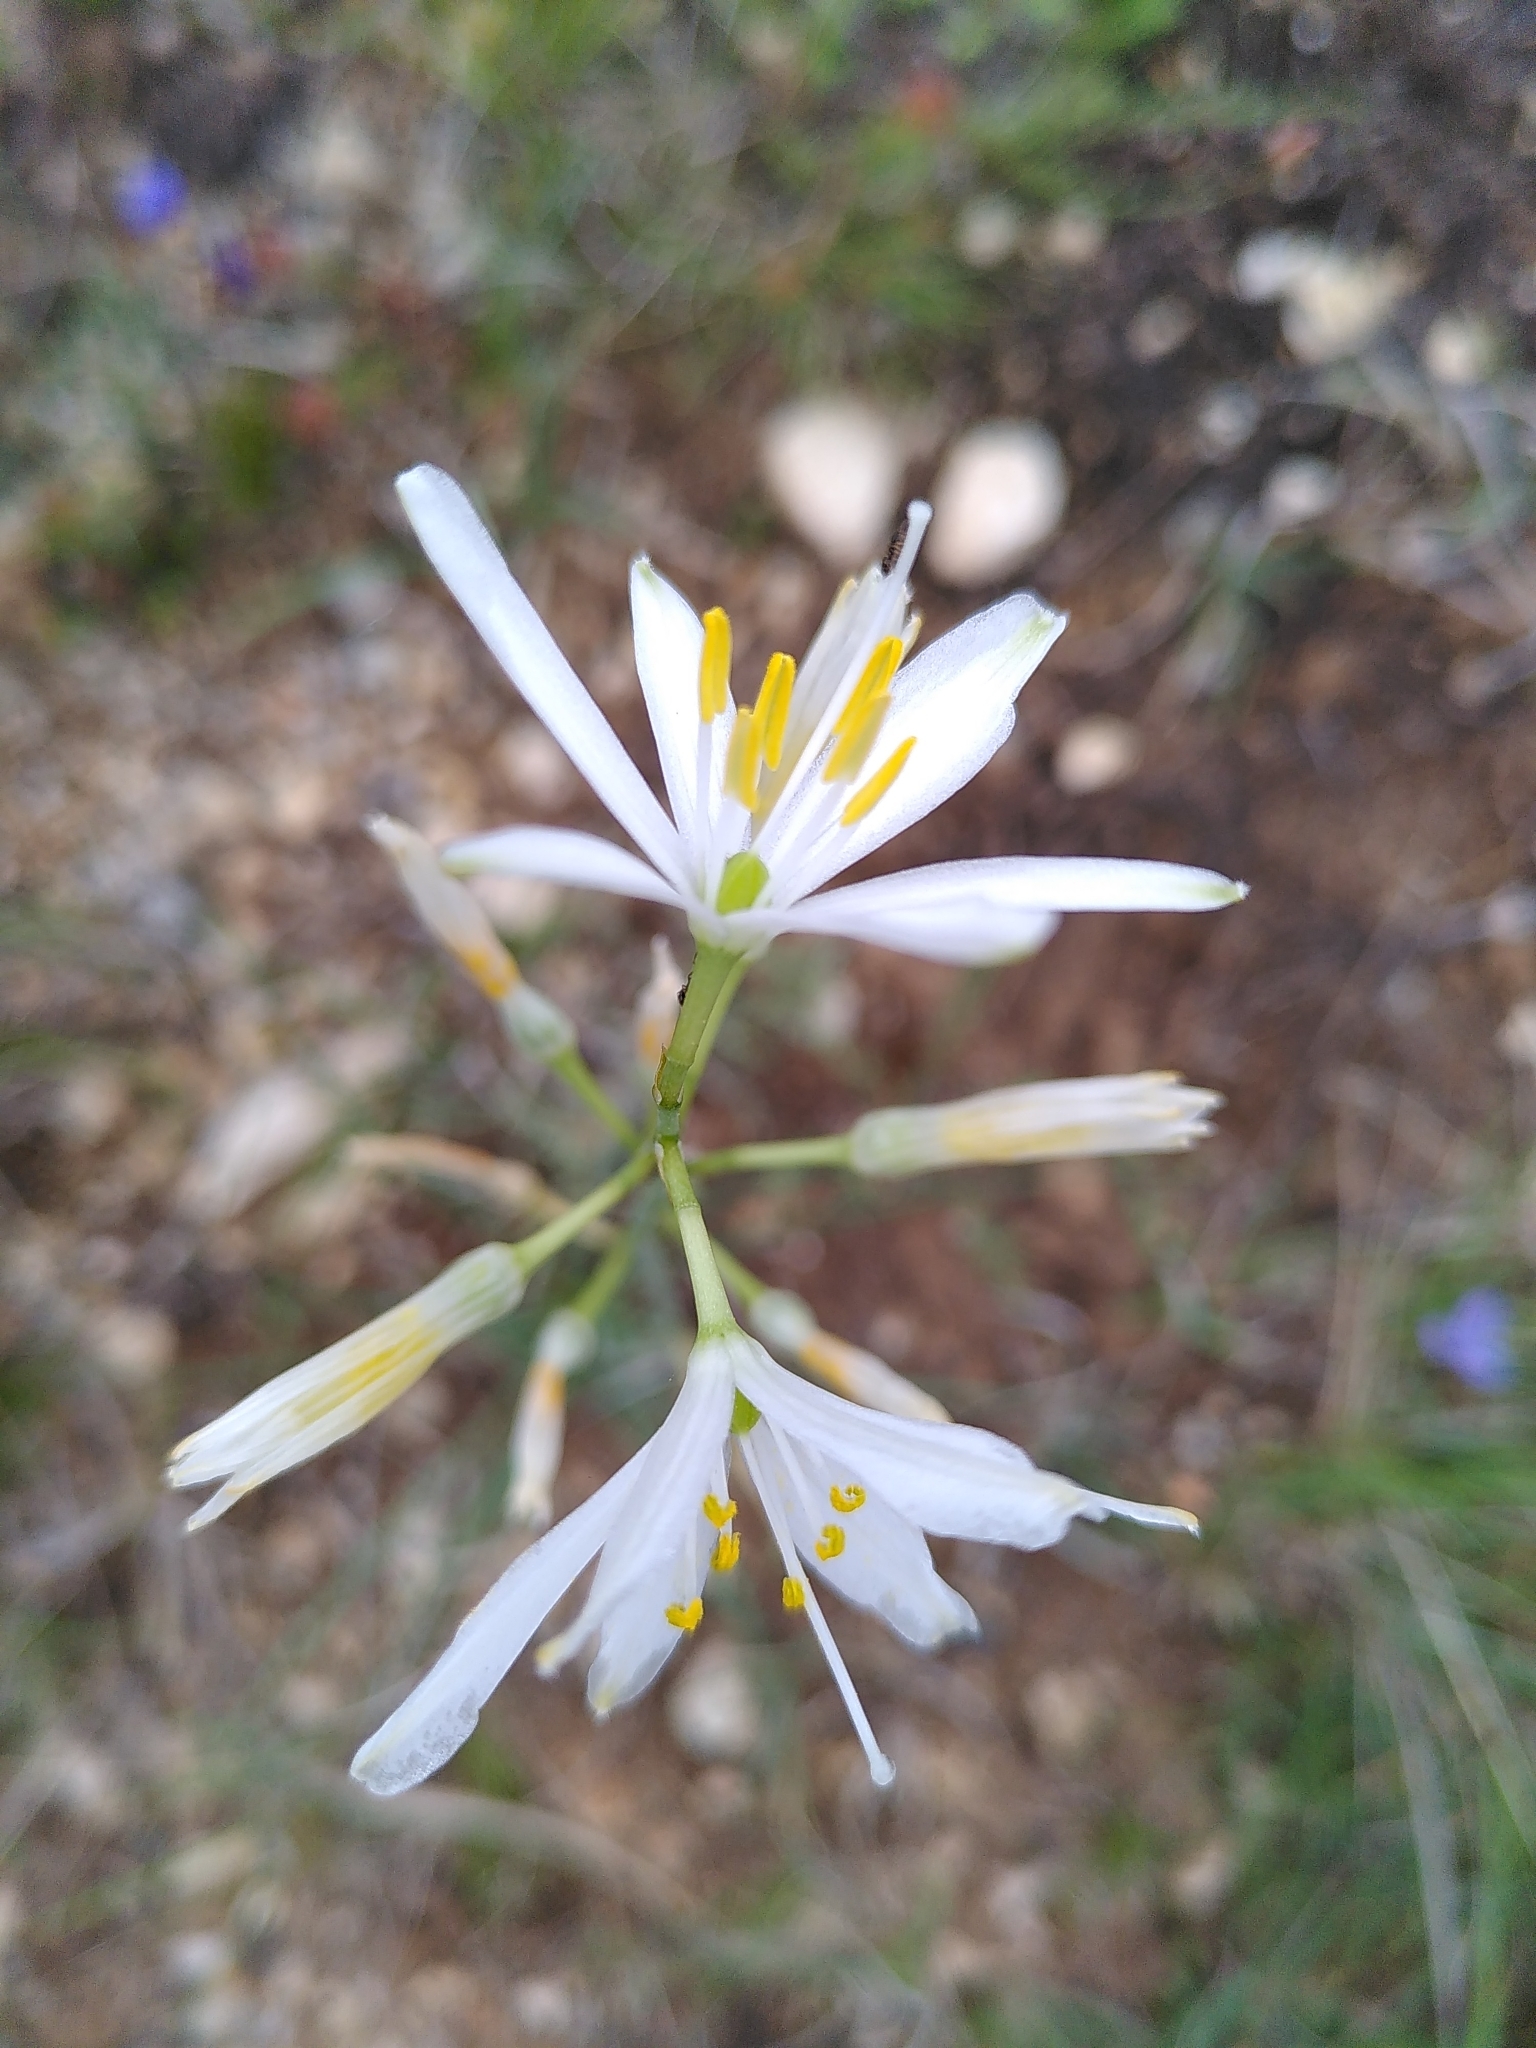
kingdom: Plantae
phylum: Tracheophyta
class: Liliopsida
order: Asparagales
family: Asparagaceae
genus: Anthericum
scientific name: Anthericum liliago
